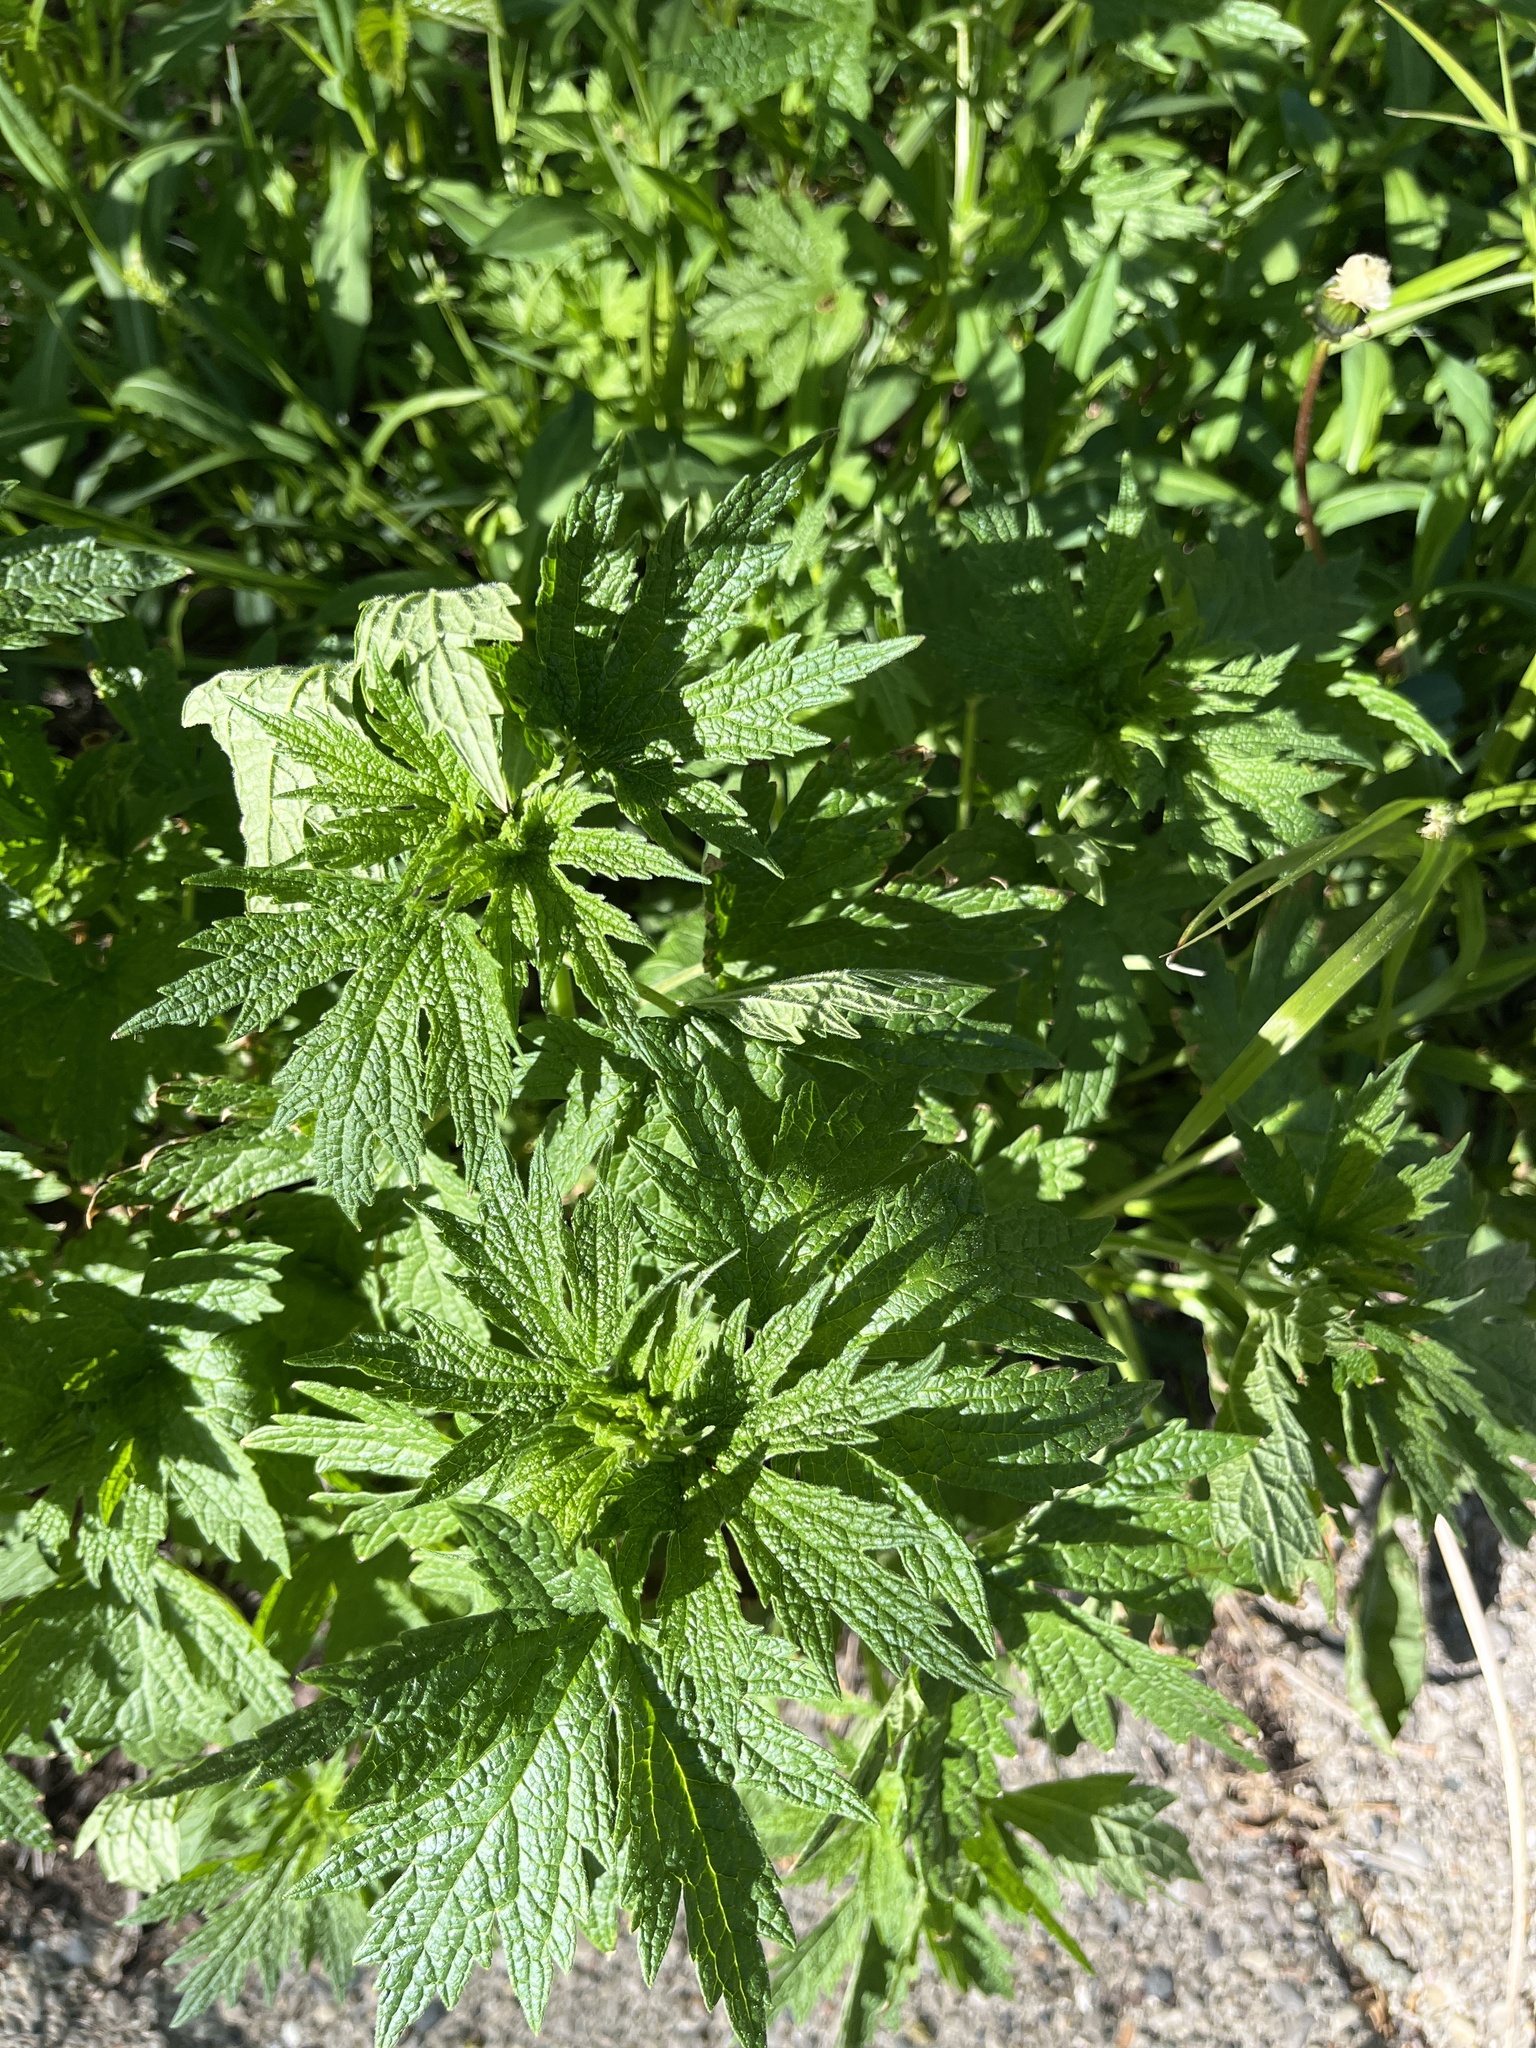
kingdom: Plantae
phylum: Tracheophyta
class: Magnoliopsida
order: Lamiales
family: Lamiaceae
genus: Leonurus
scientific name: Leonurus cardiaca
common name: Motherwort
